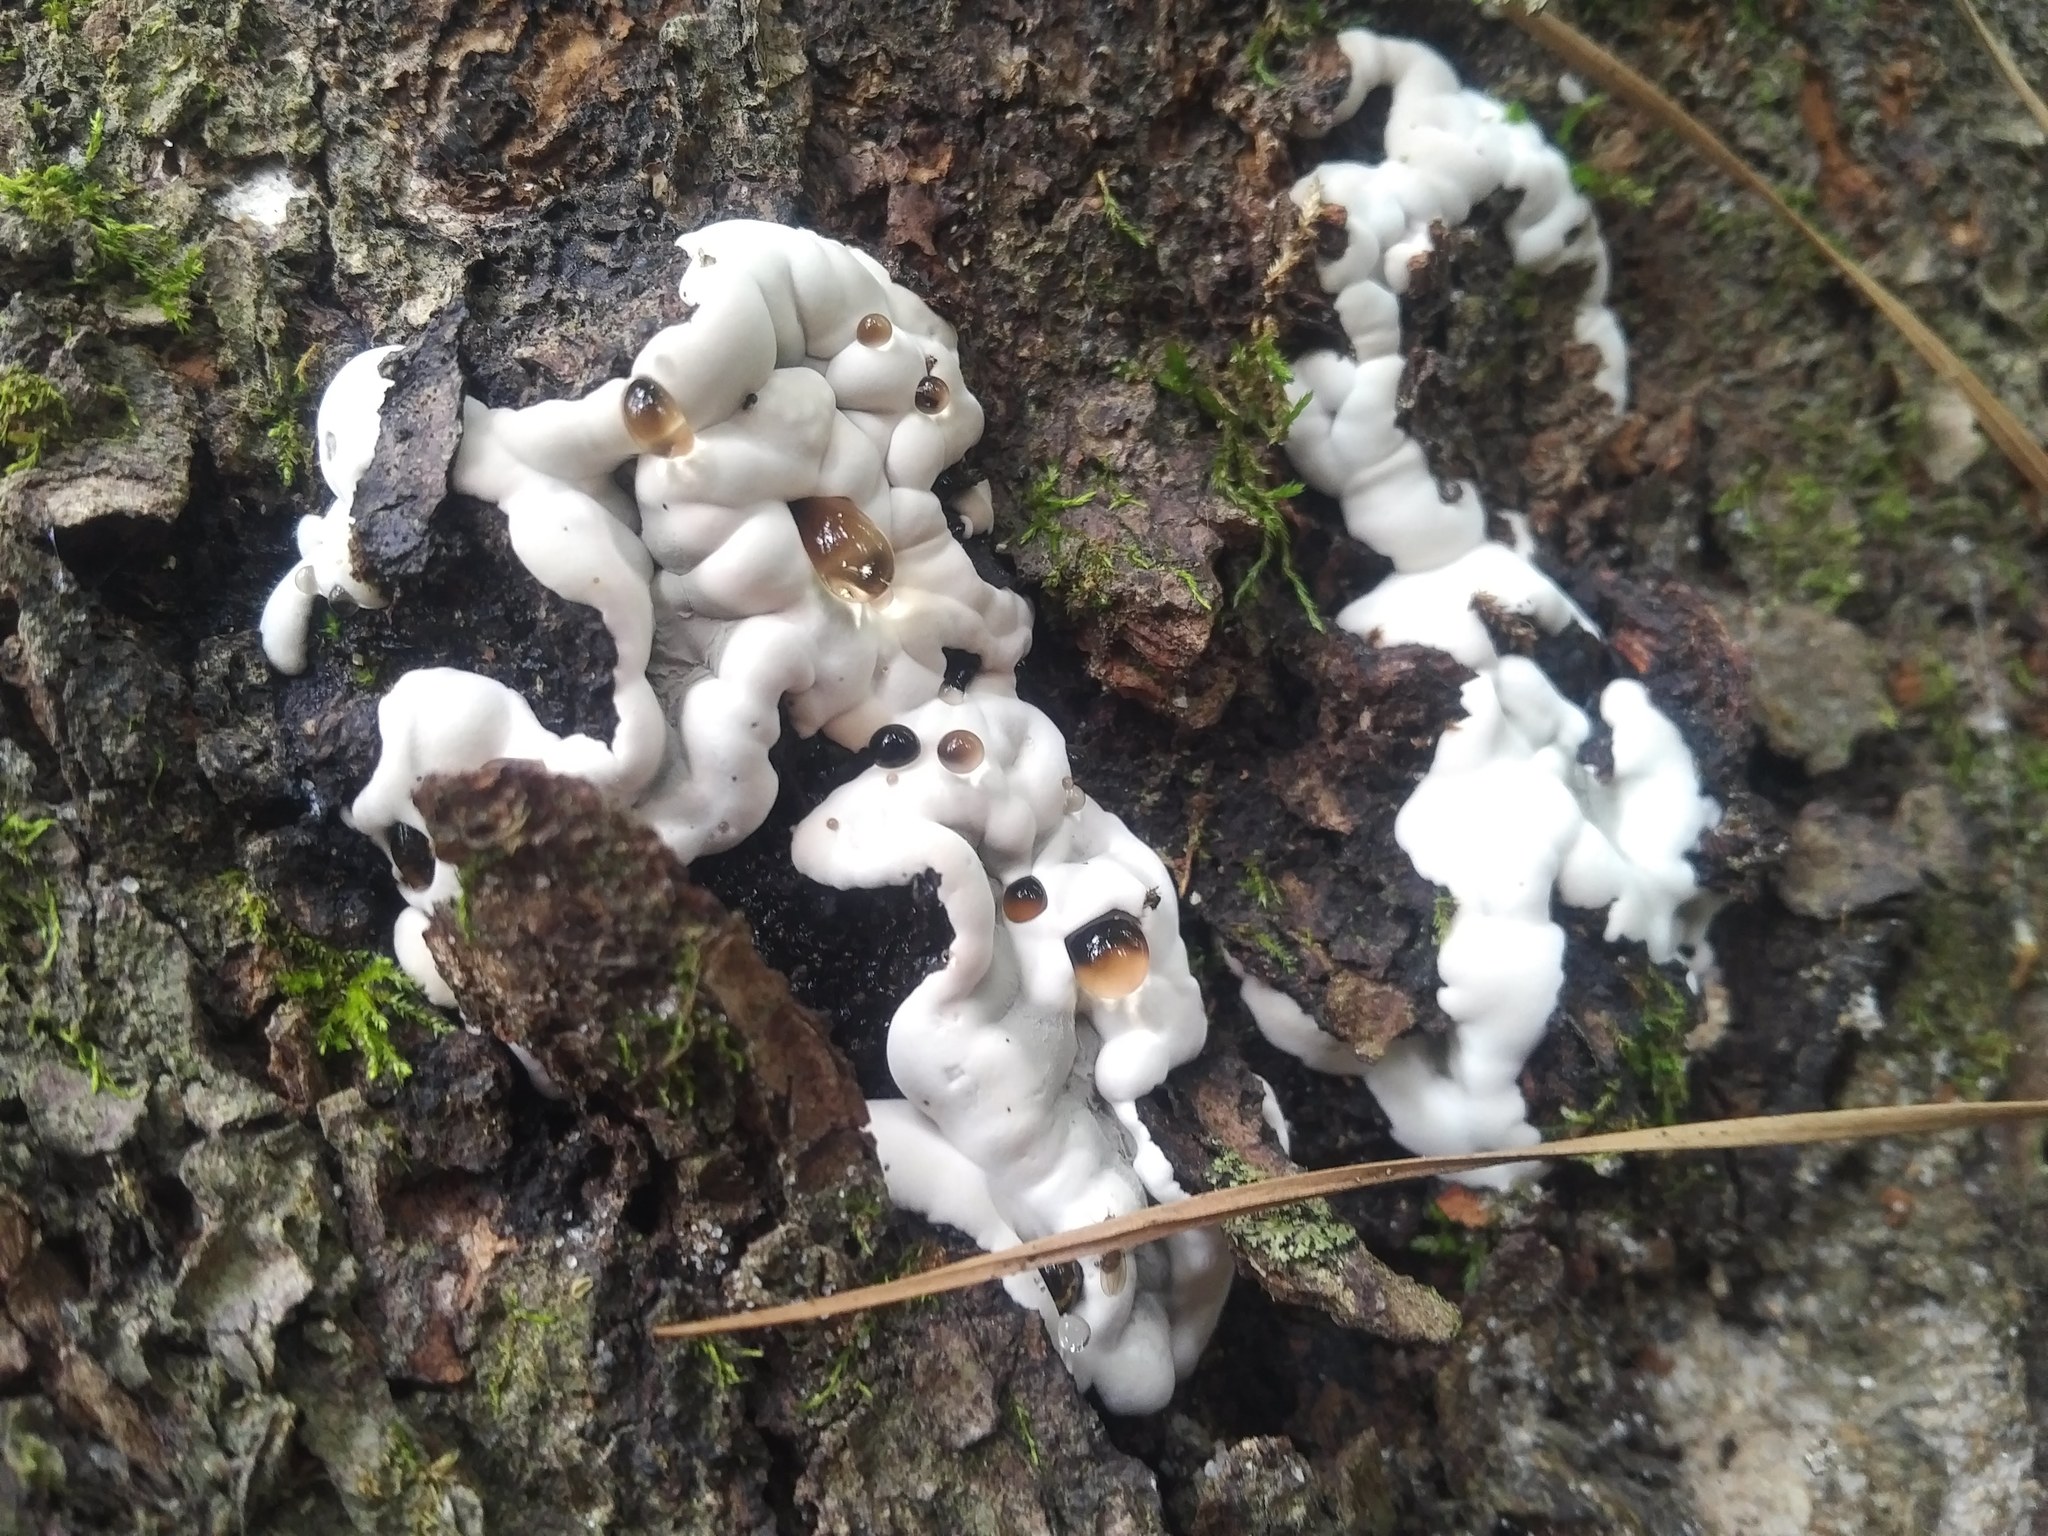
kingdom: Fungi
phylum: Ascomycota
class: Sordariomycetes
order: Xylariales
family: Xylariaceae
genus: Kretzschmaria
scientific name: Kretzschmaria deusta
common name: Brittle cinder
